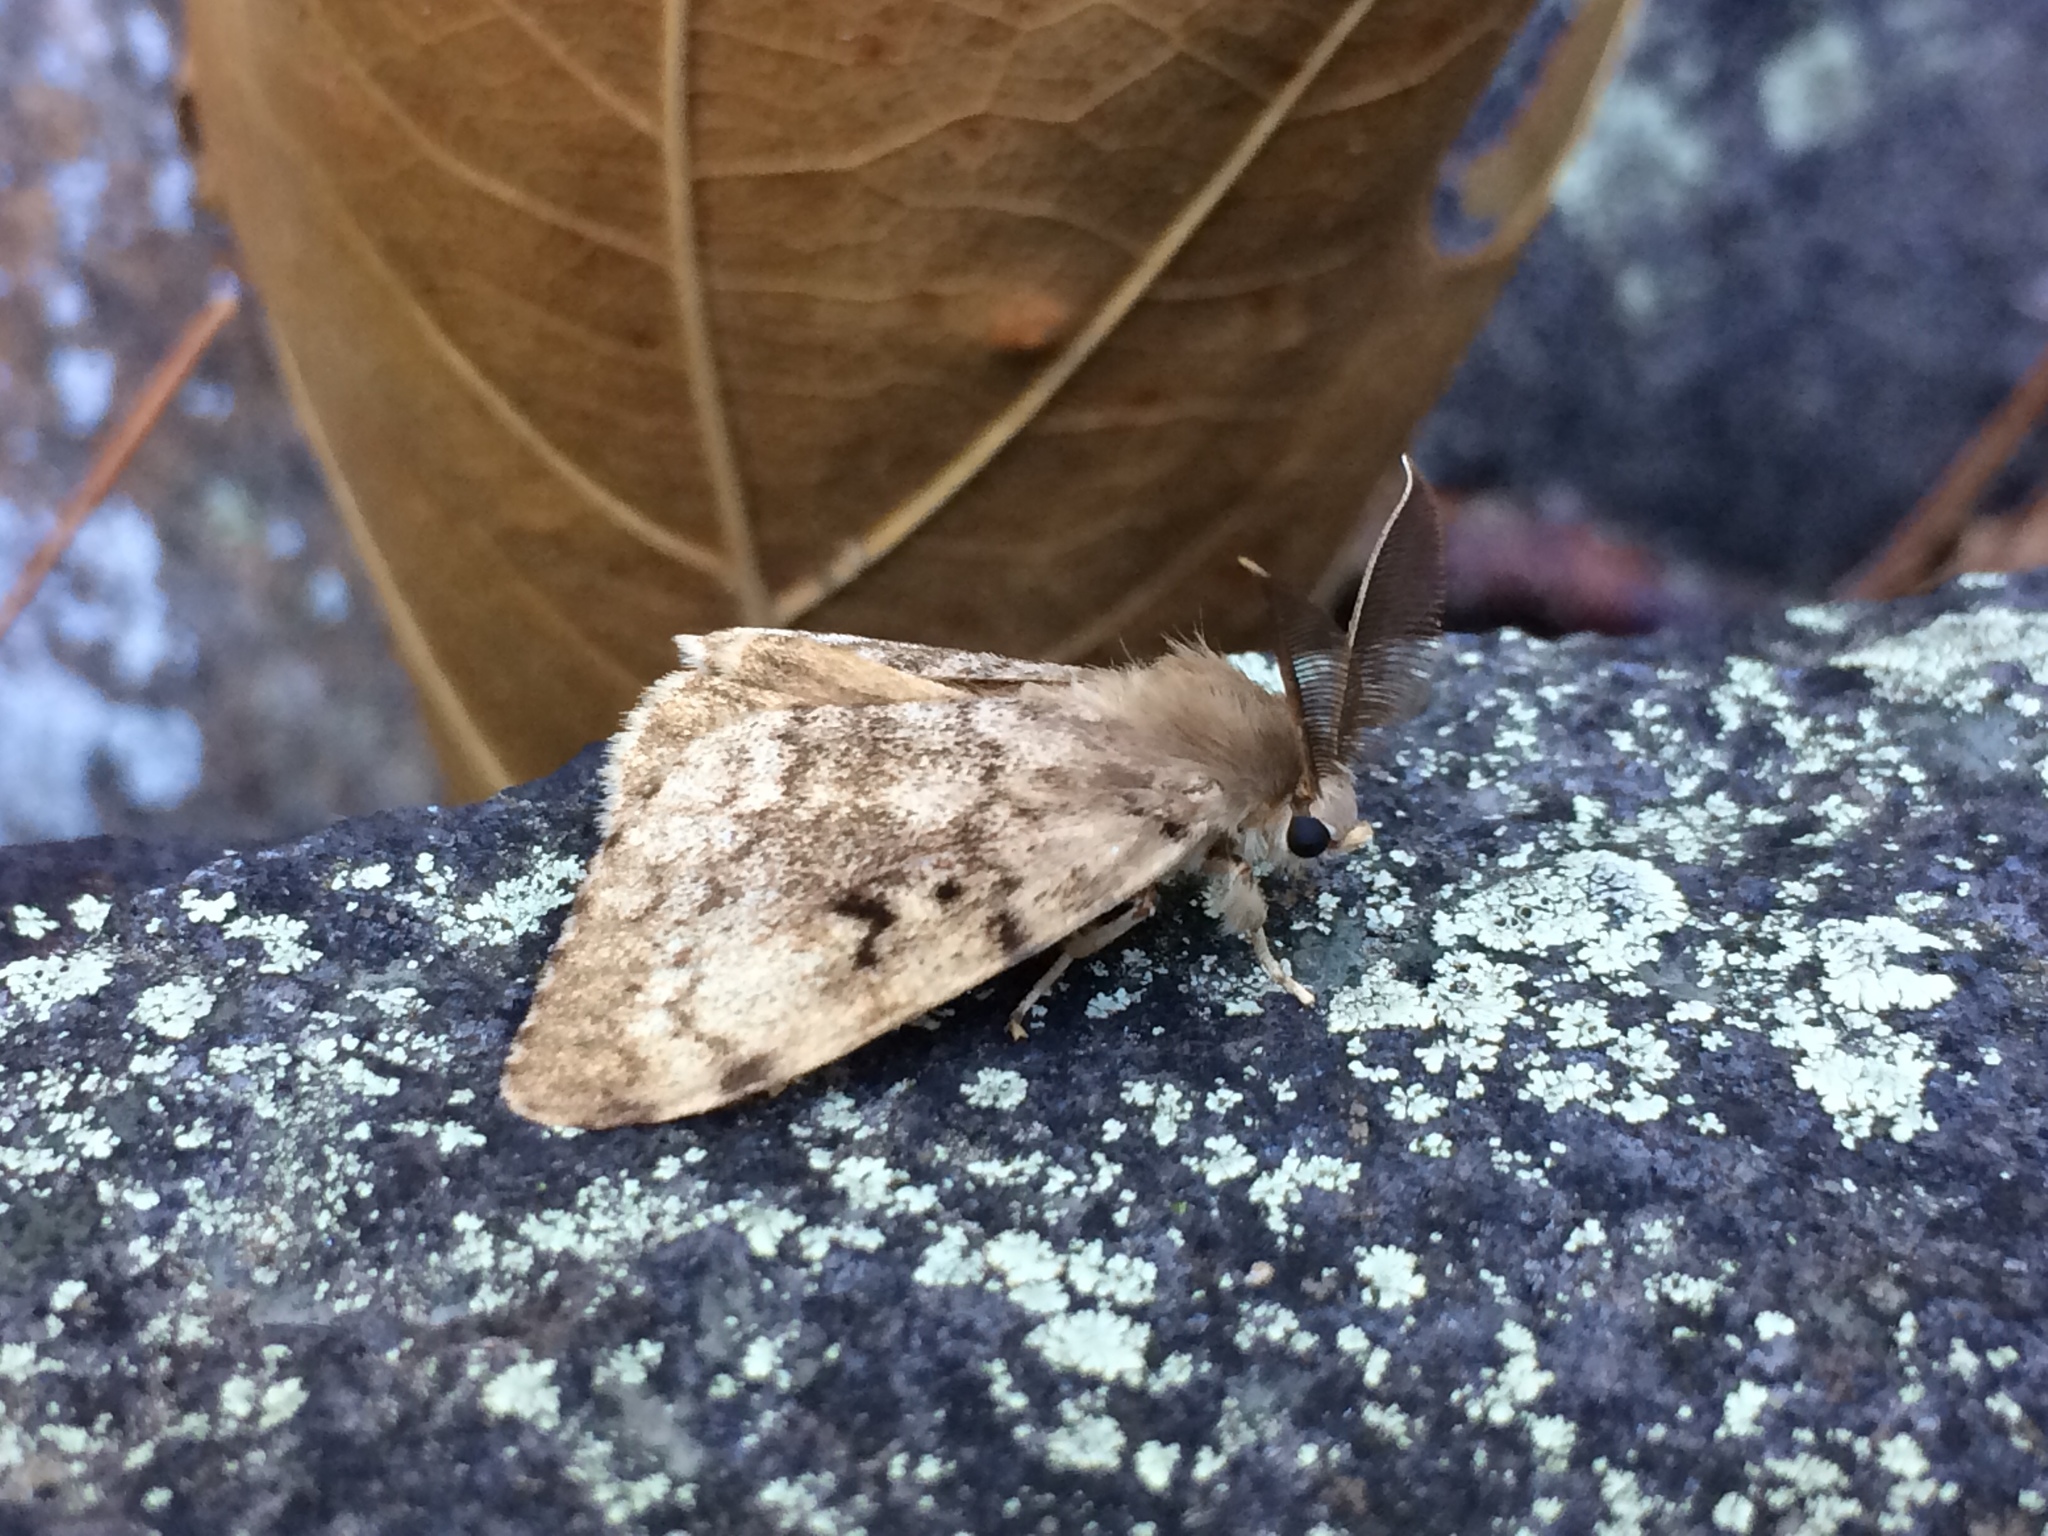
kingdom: Animalia
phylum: Arthropoda
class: Insecta
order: Lepidoptera
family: Erebidae
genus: Lymantria
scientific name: Lymantria dispar
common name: Gypsy moth
